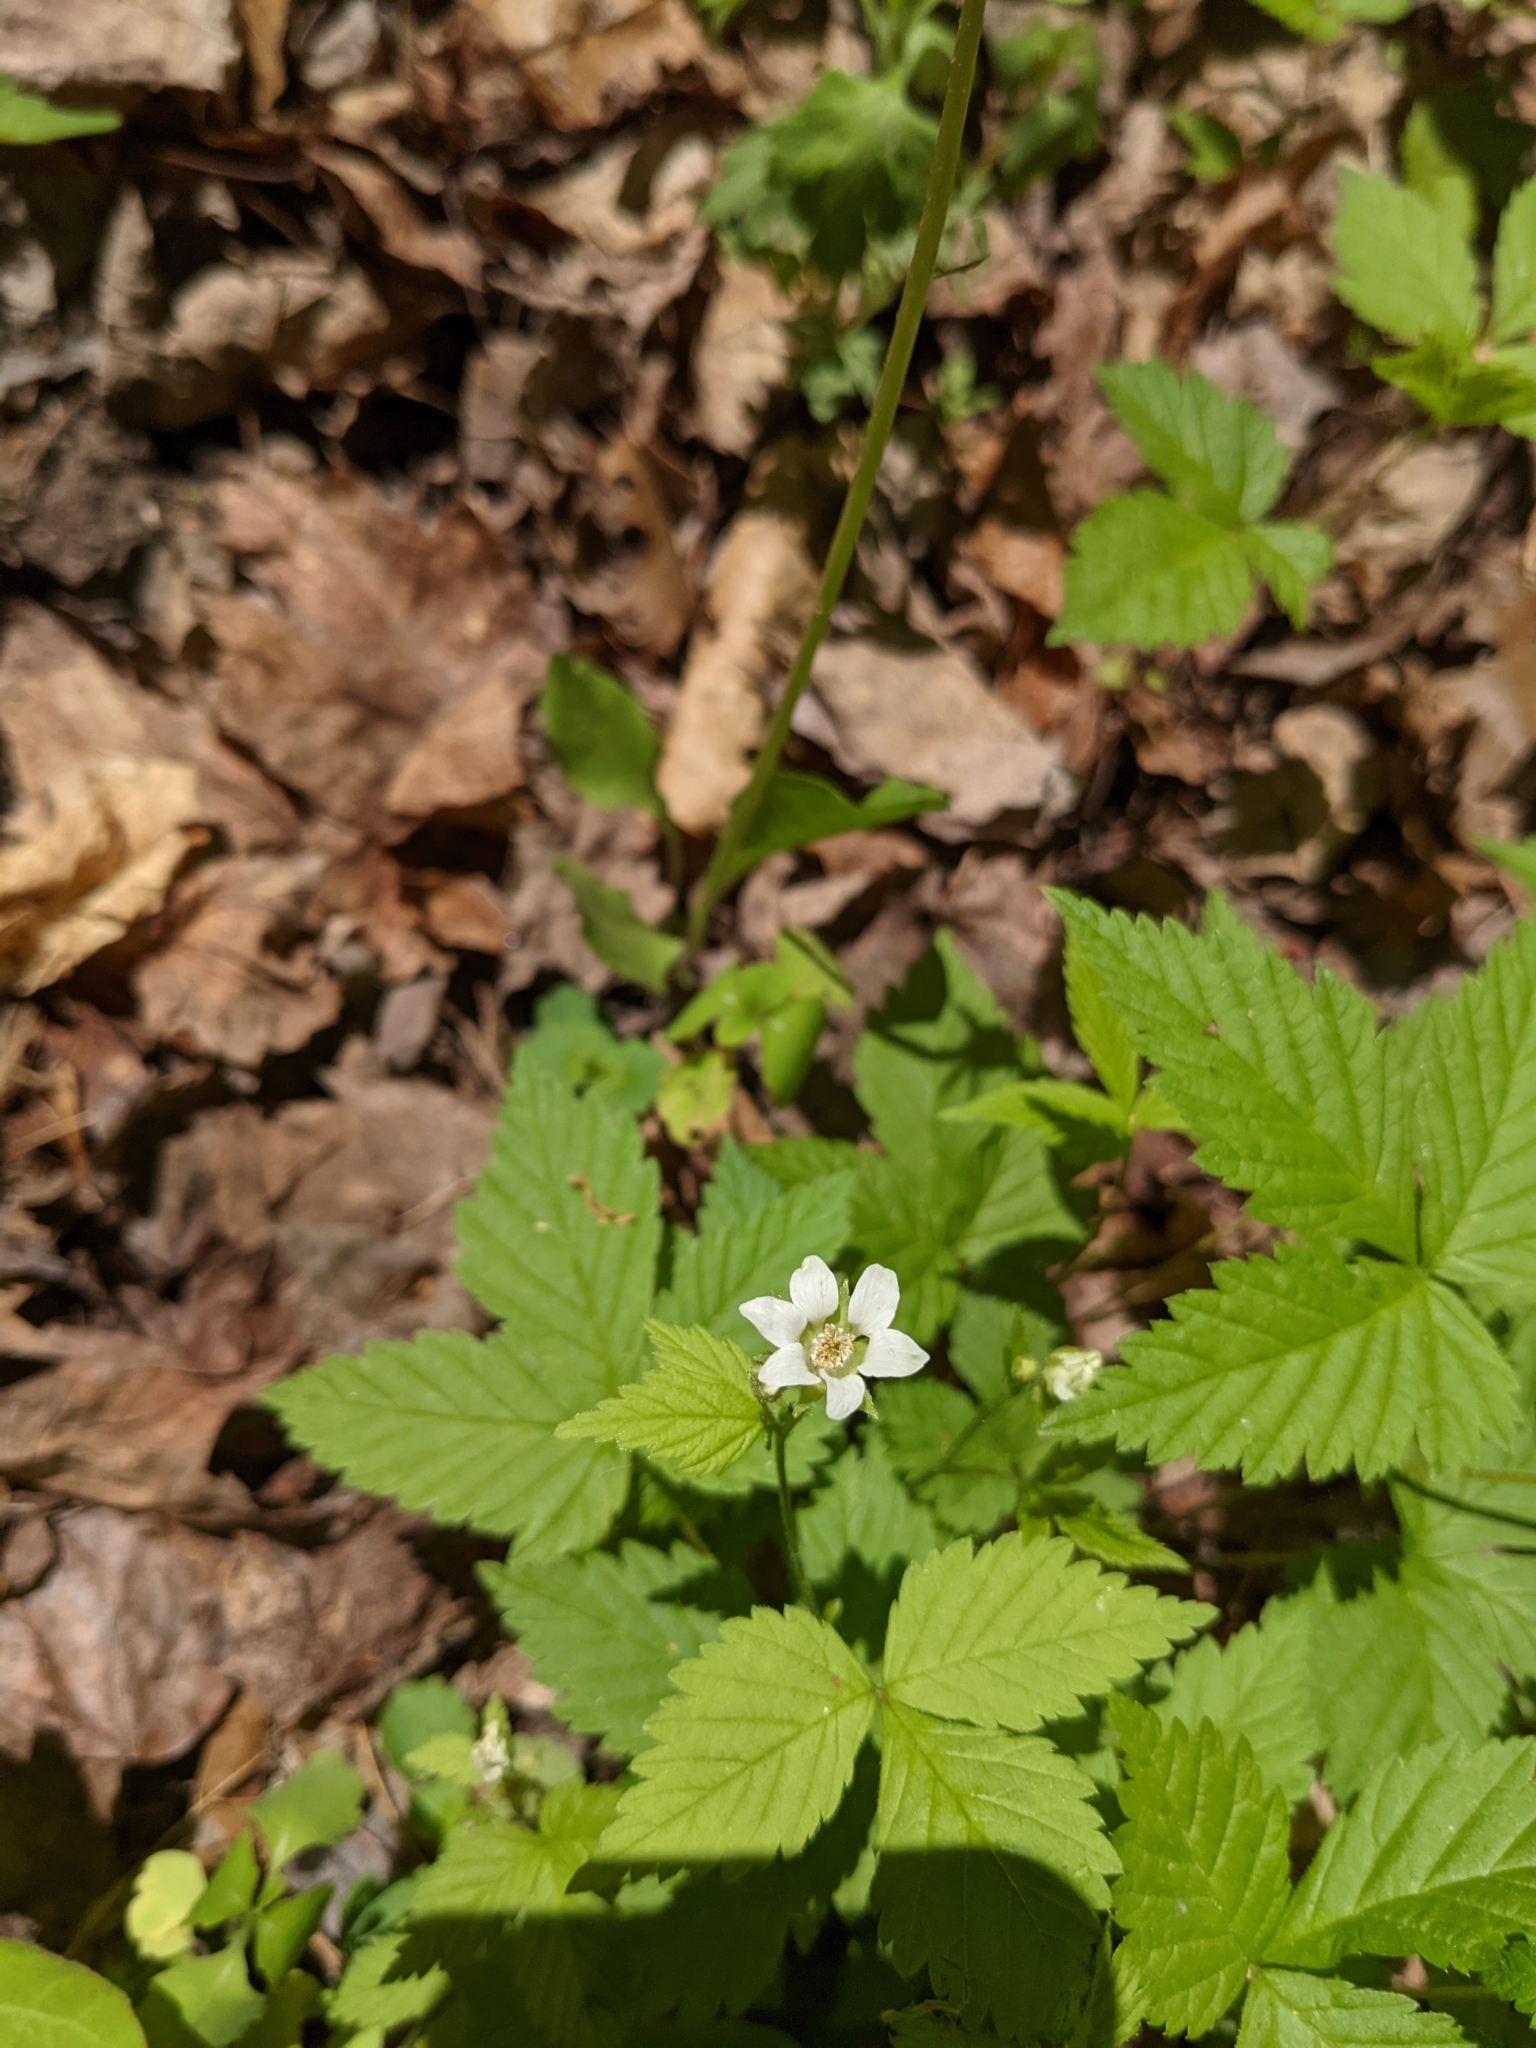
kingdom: Plantae
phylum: Tracheophyta
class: Magnoliopsida
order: Rosales
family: Rosaceae
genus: Rubus
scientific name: Rubus pubescens
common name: Dwarf raspberry
